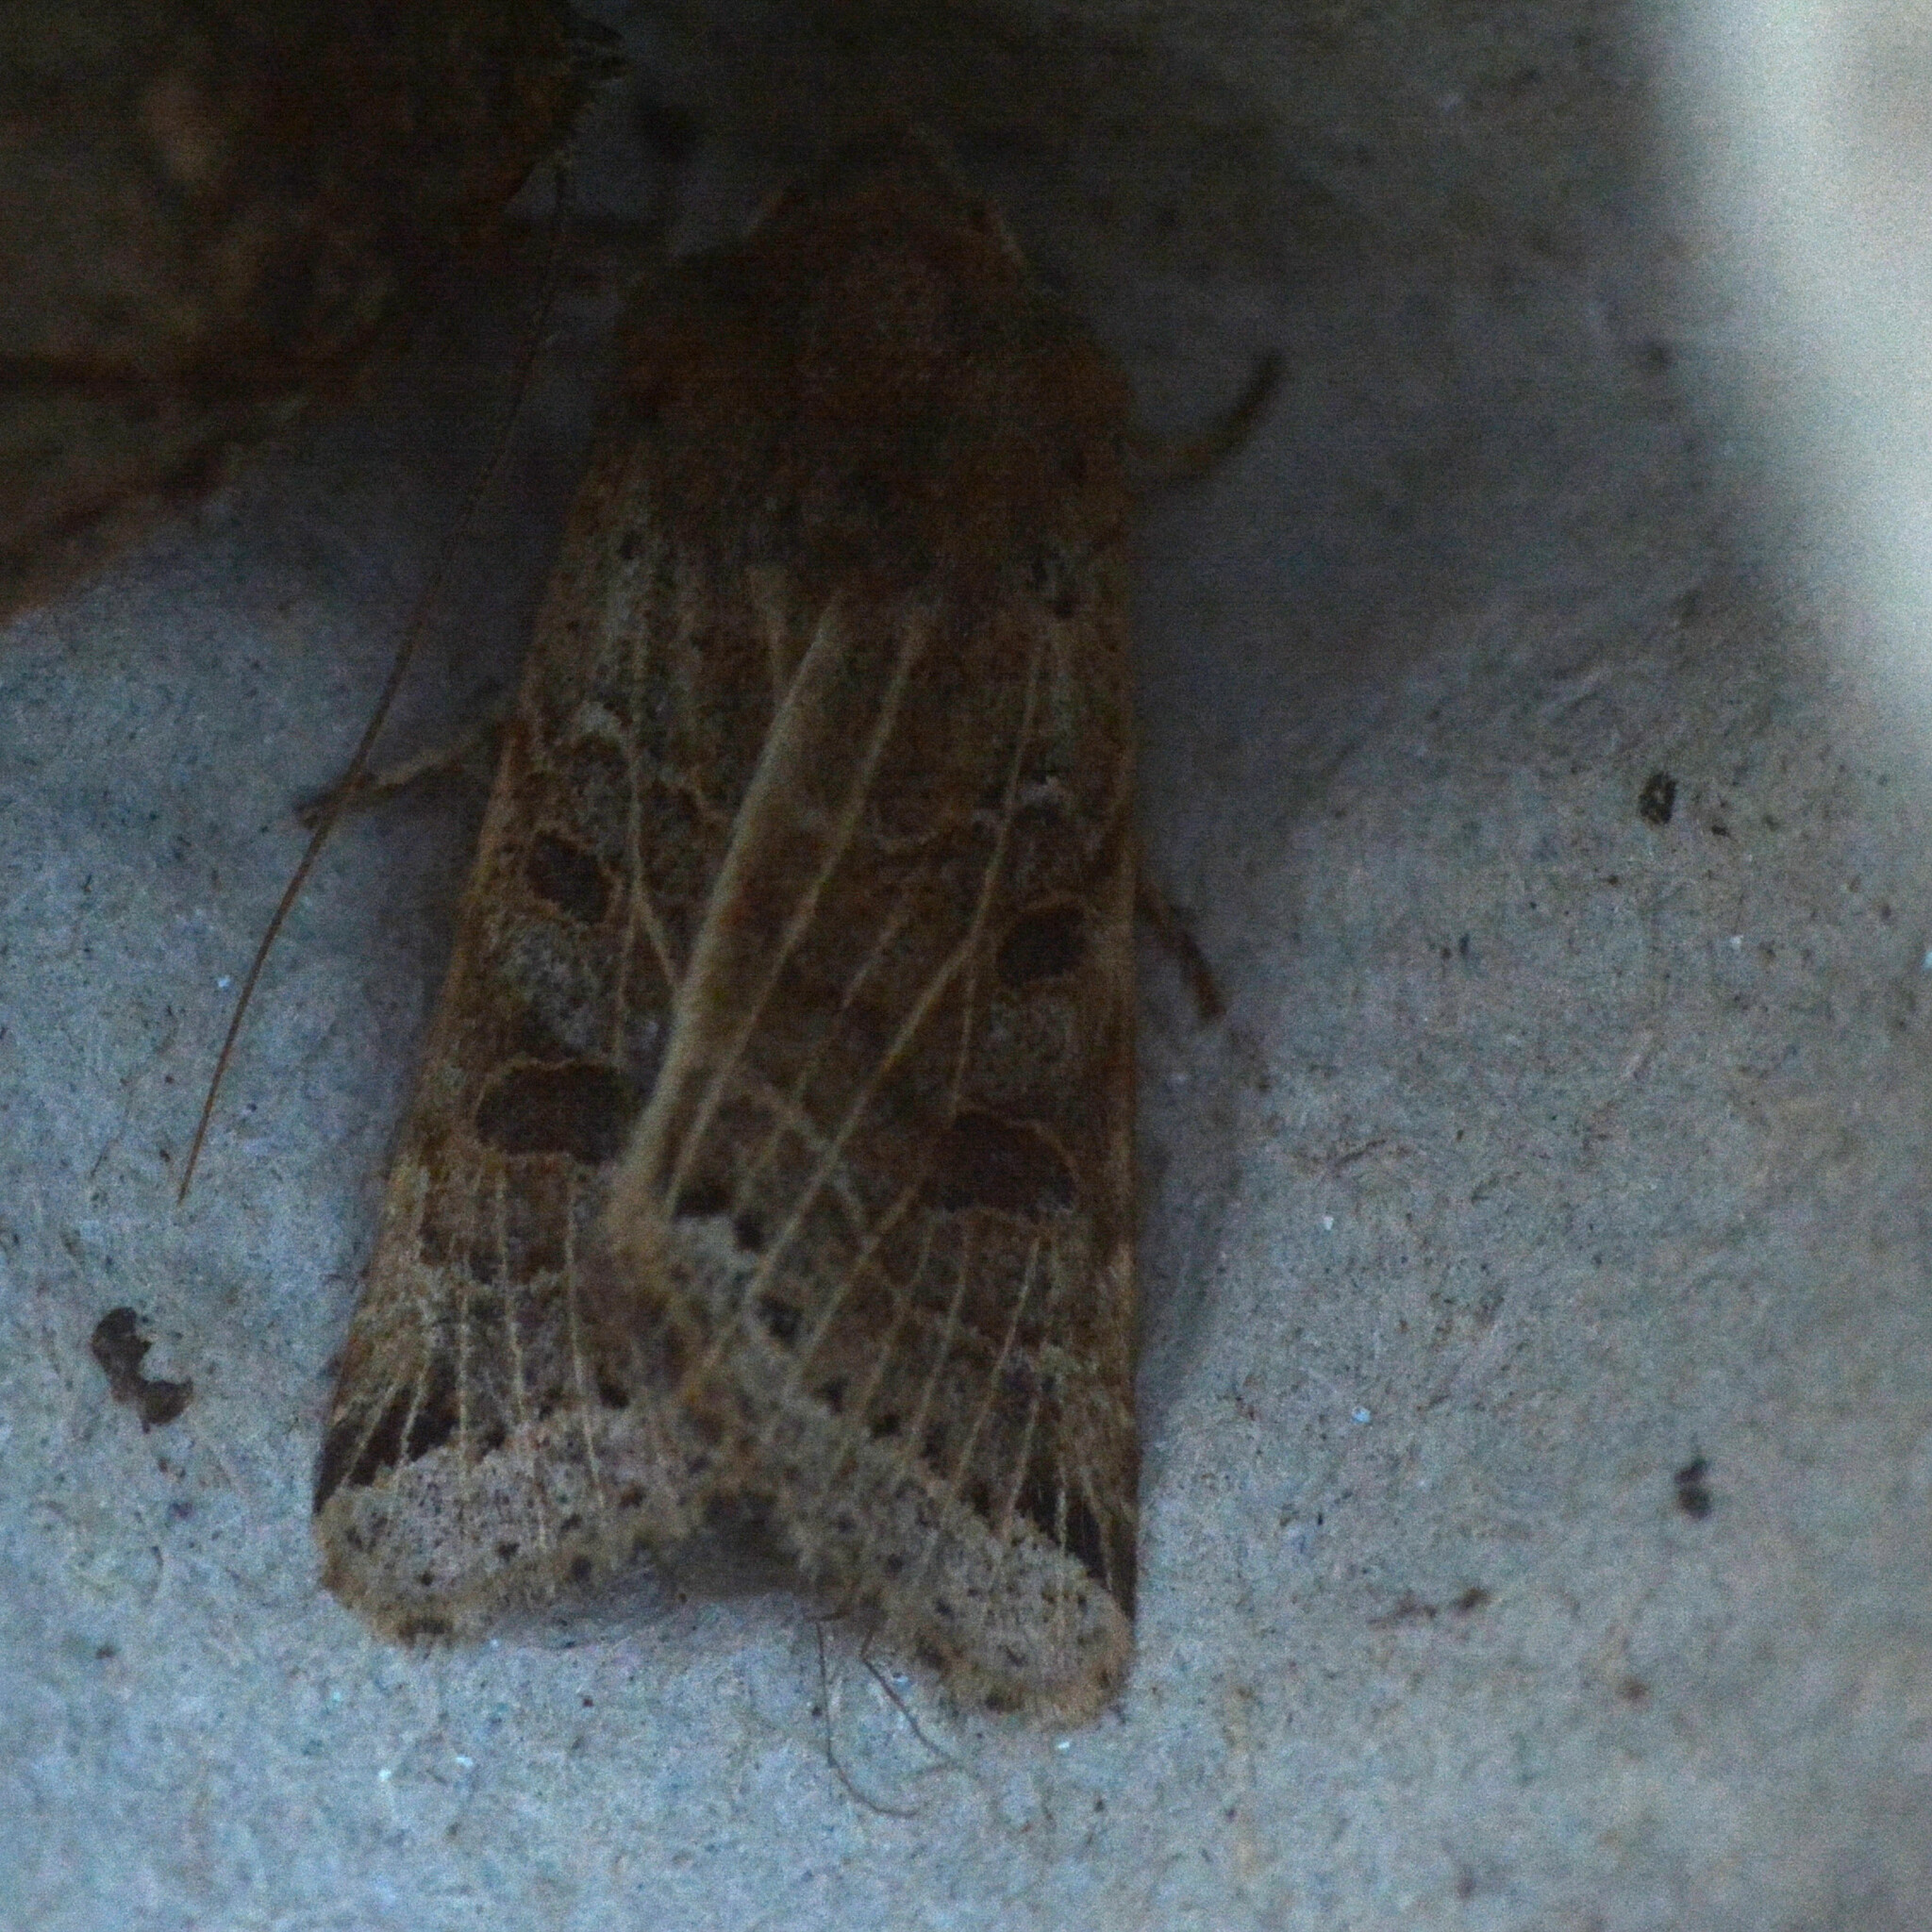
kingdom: Animalia
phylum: Arthropoda
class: Insecta
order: Lepidoptera
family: Noctuidae
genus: Agrochola
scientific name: Agrochola lunosa
